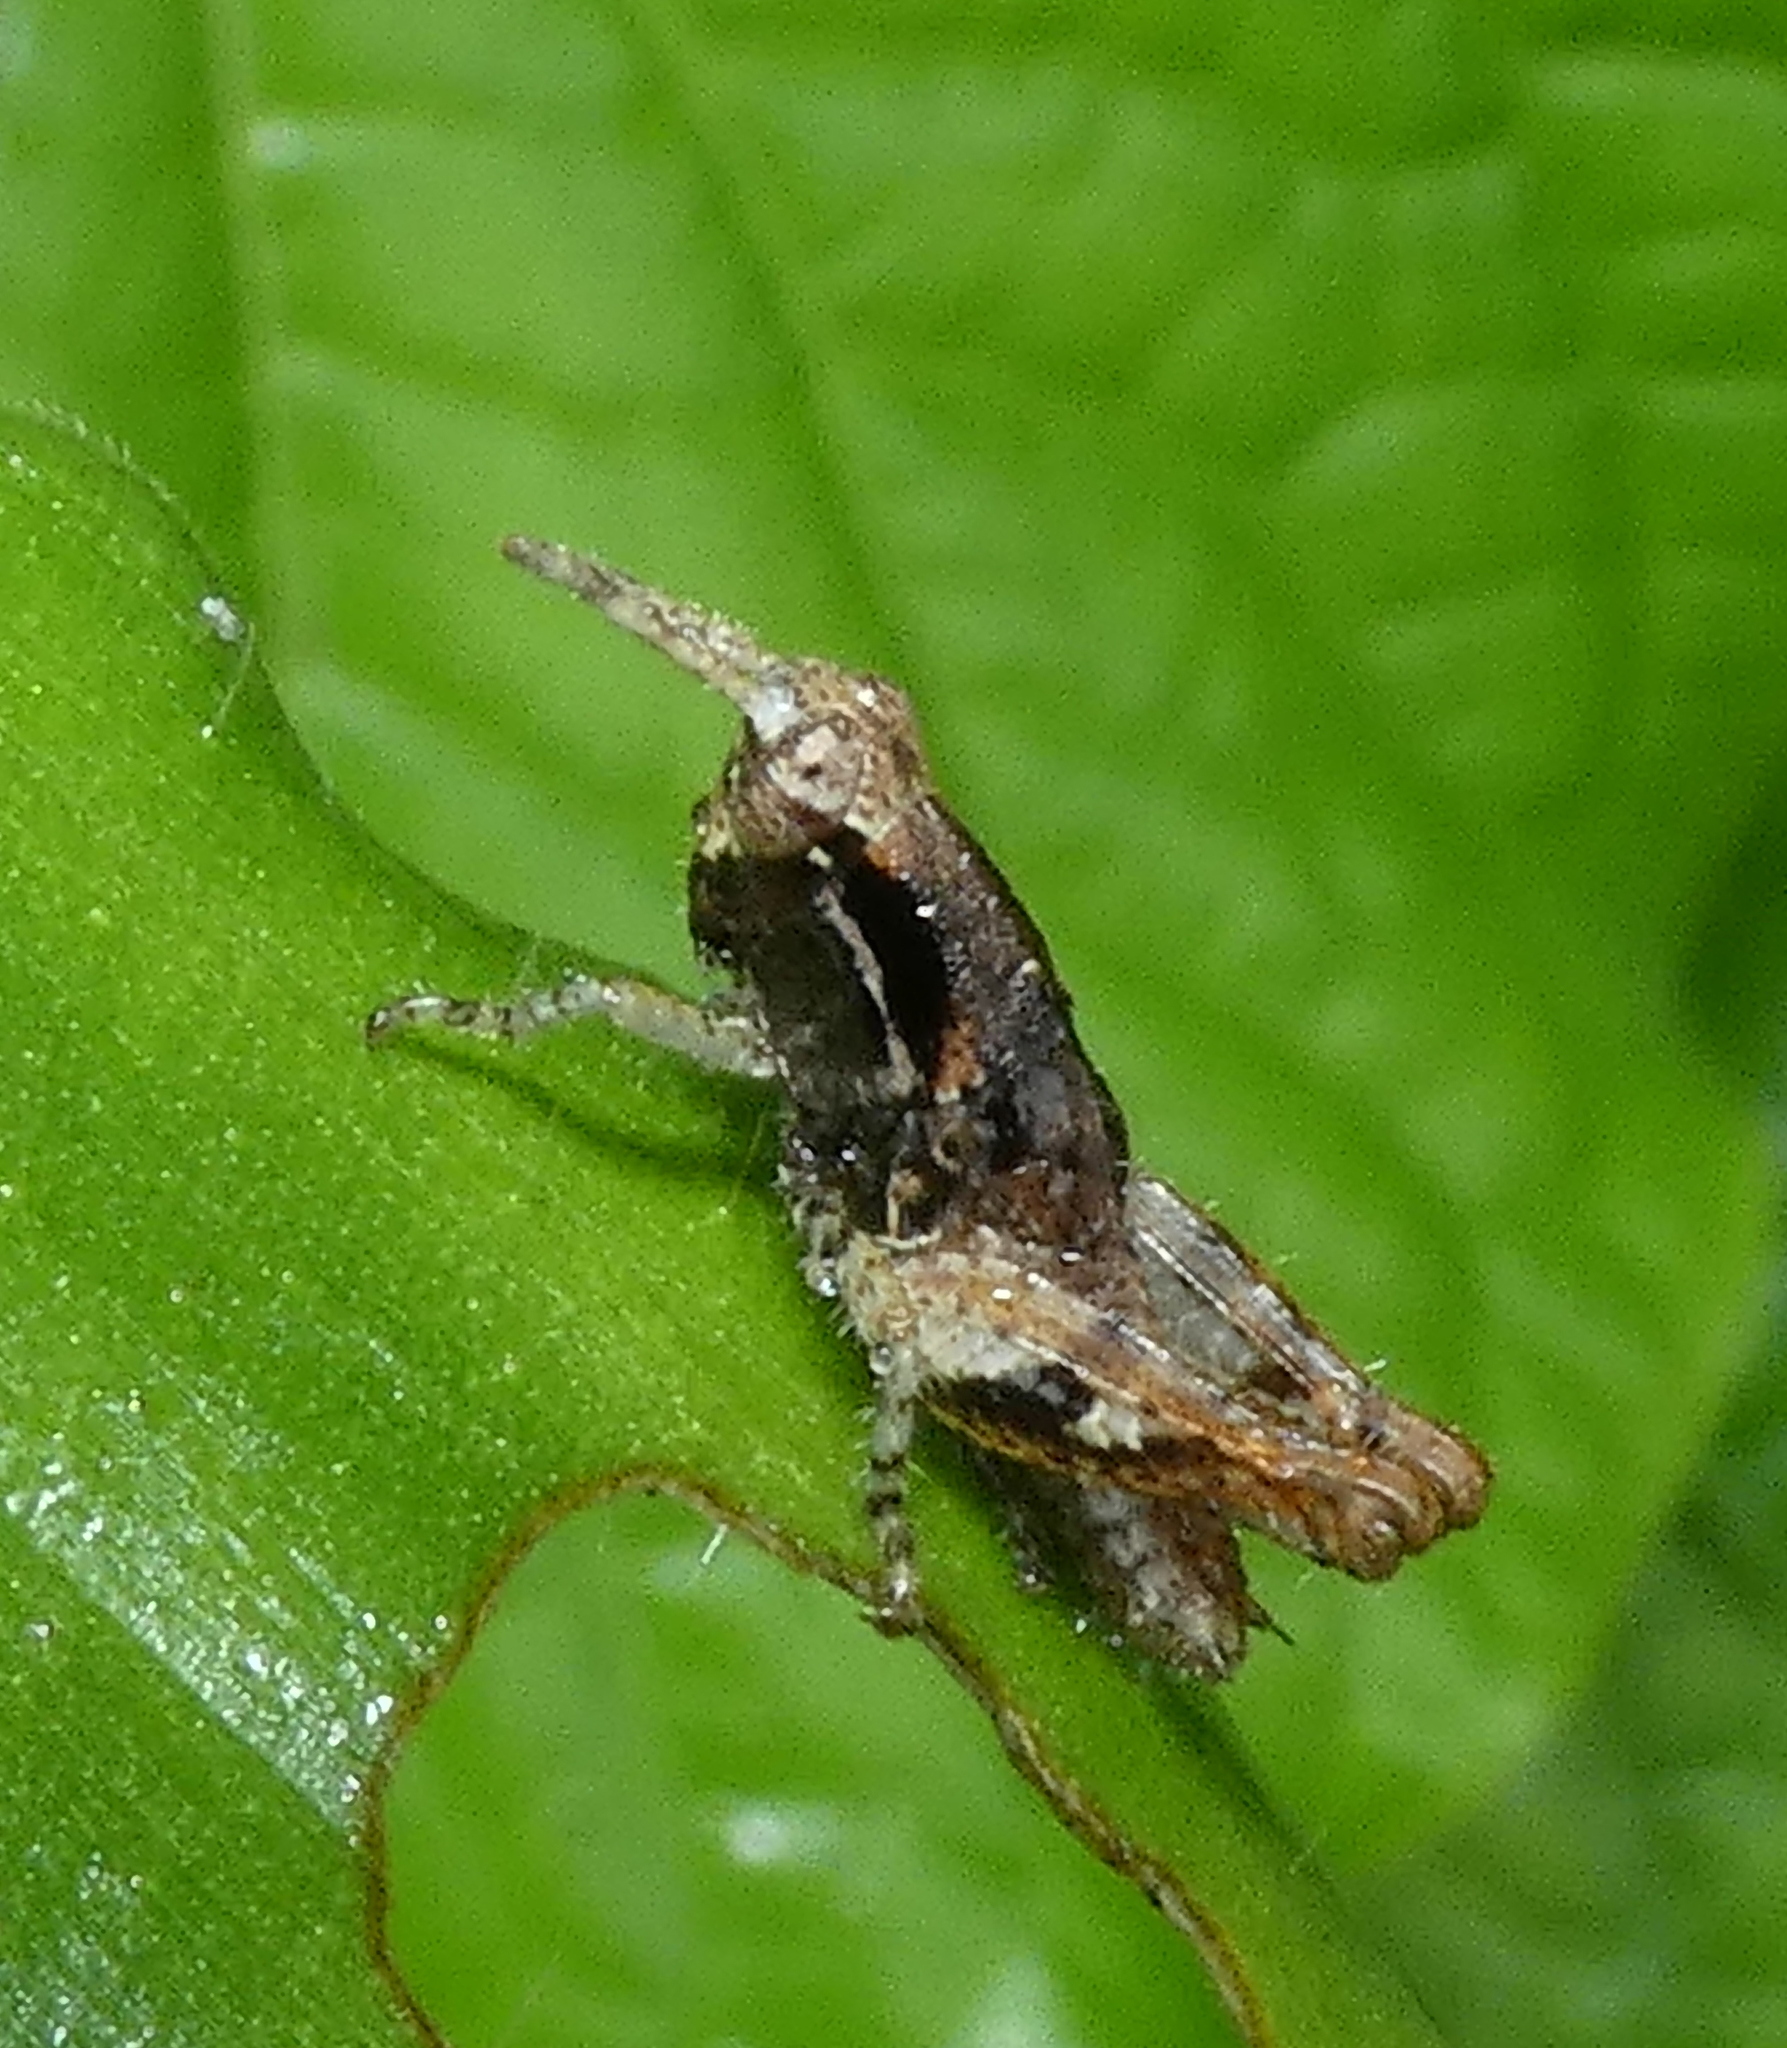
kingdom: Animalia
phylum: Arthropoda
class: Insecta
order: Orthoptera
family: Acrididae
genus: Eujivarus
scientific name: Eujivarus meridionalis
